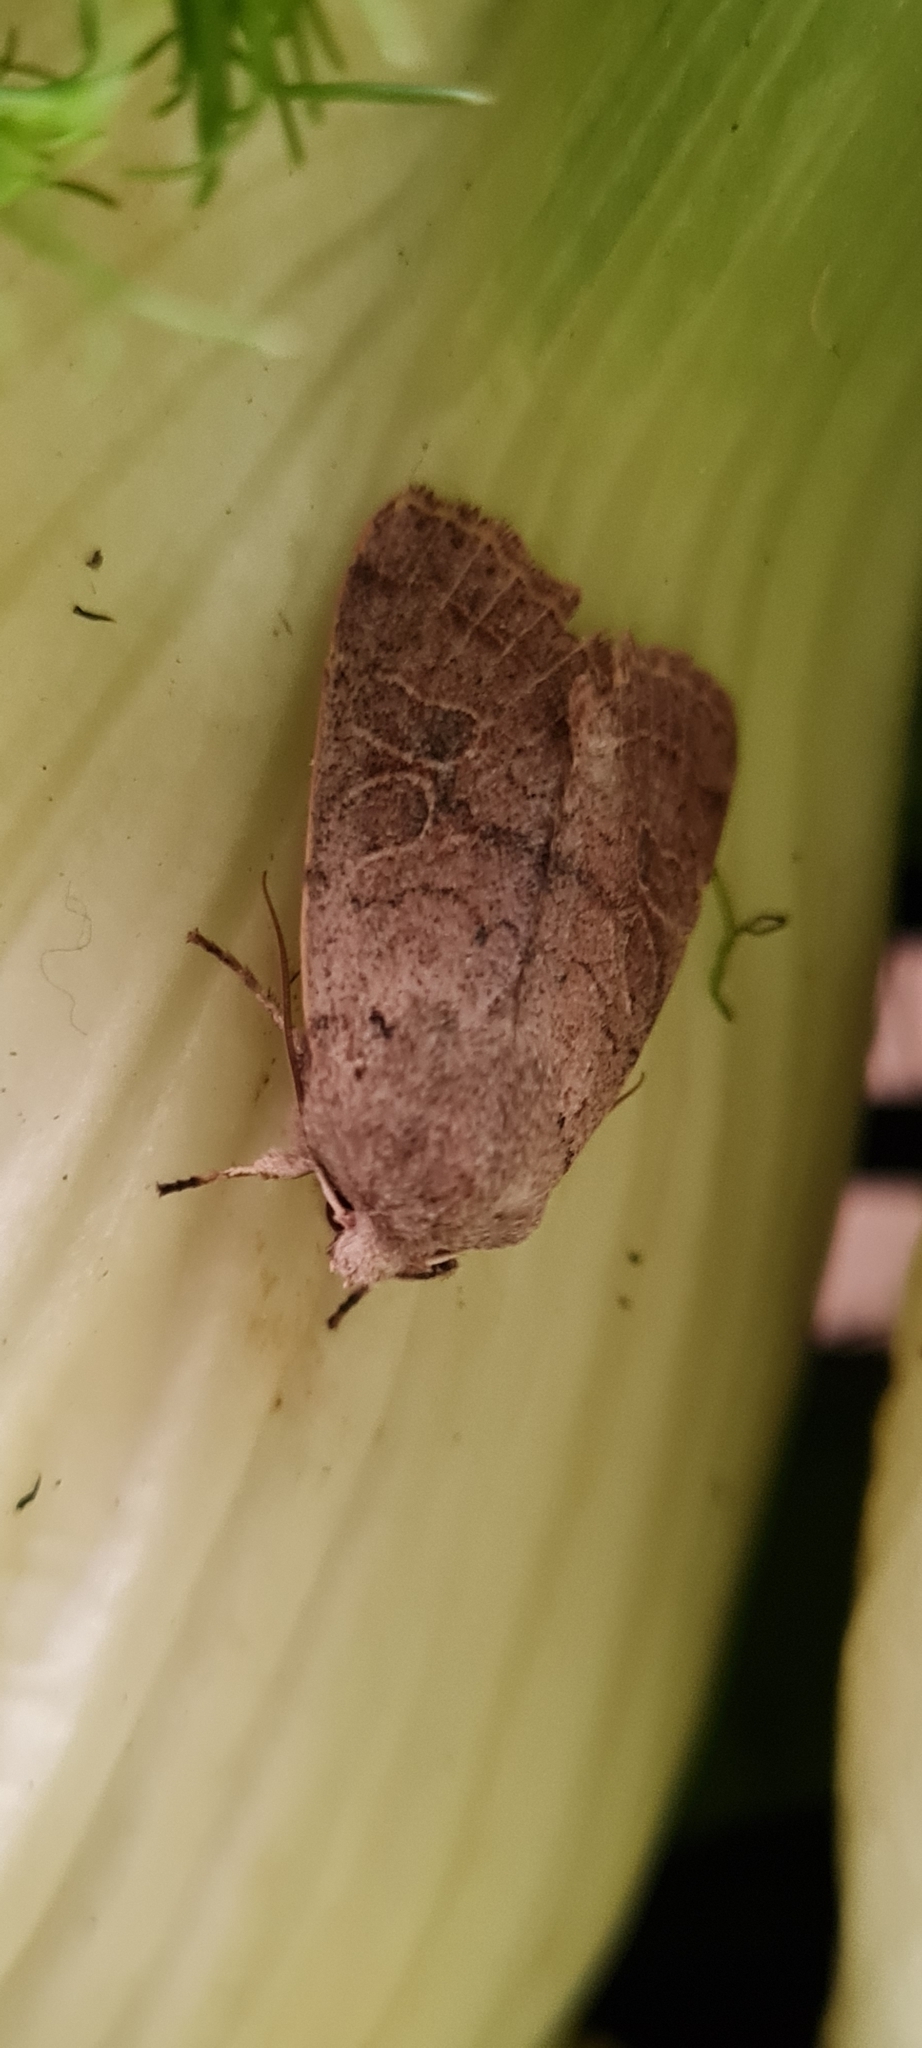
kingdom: Animalia
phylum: Arthropoda
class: Insecta
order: Lepidoptera
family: Noctuidae
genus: Orthosia
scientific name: Orthosia cerasi
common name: Common quaker
